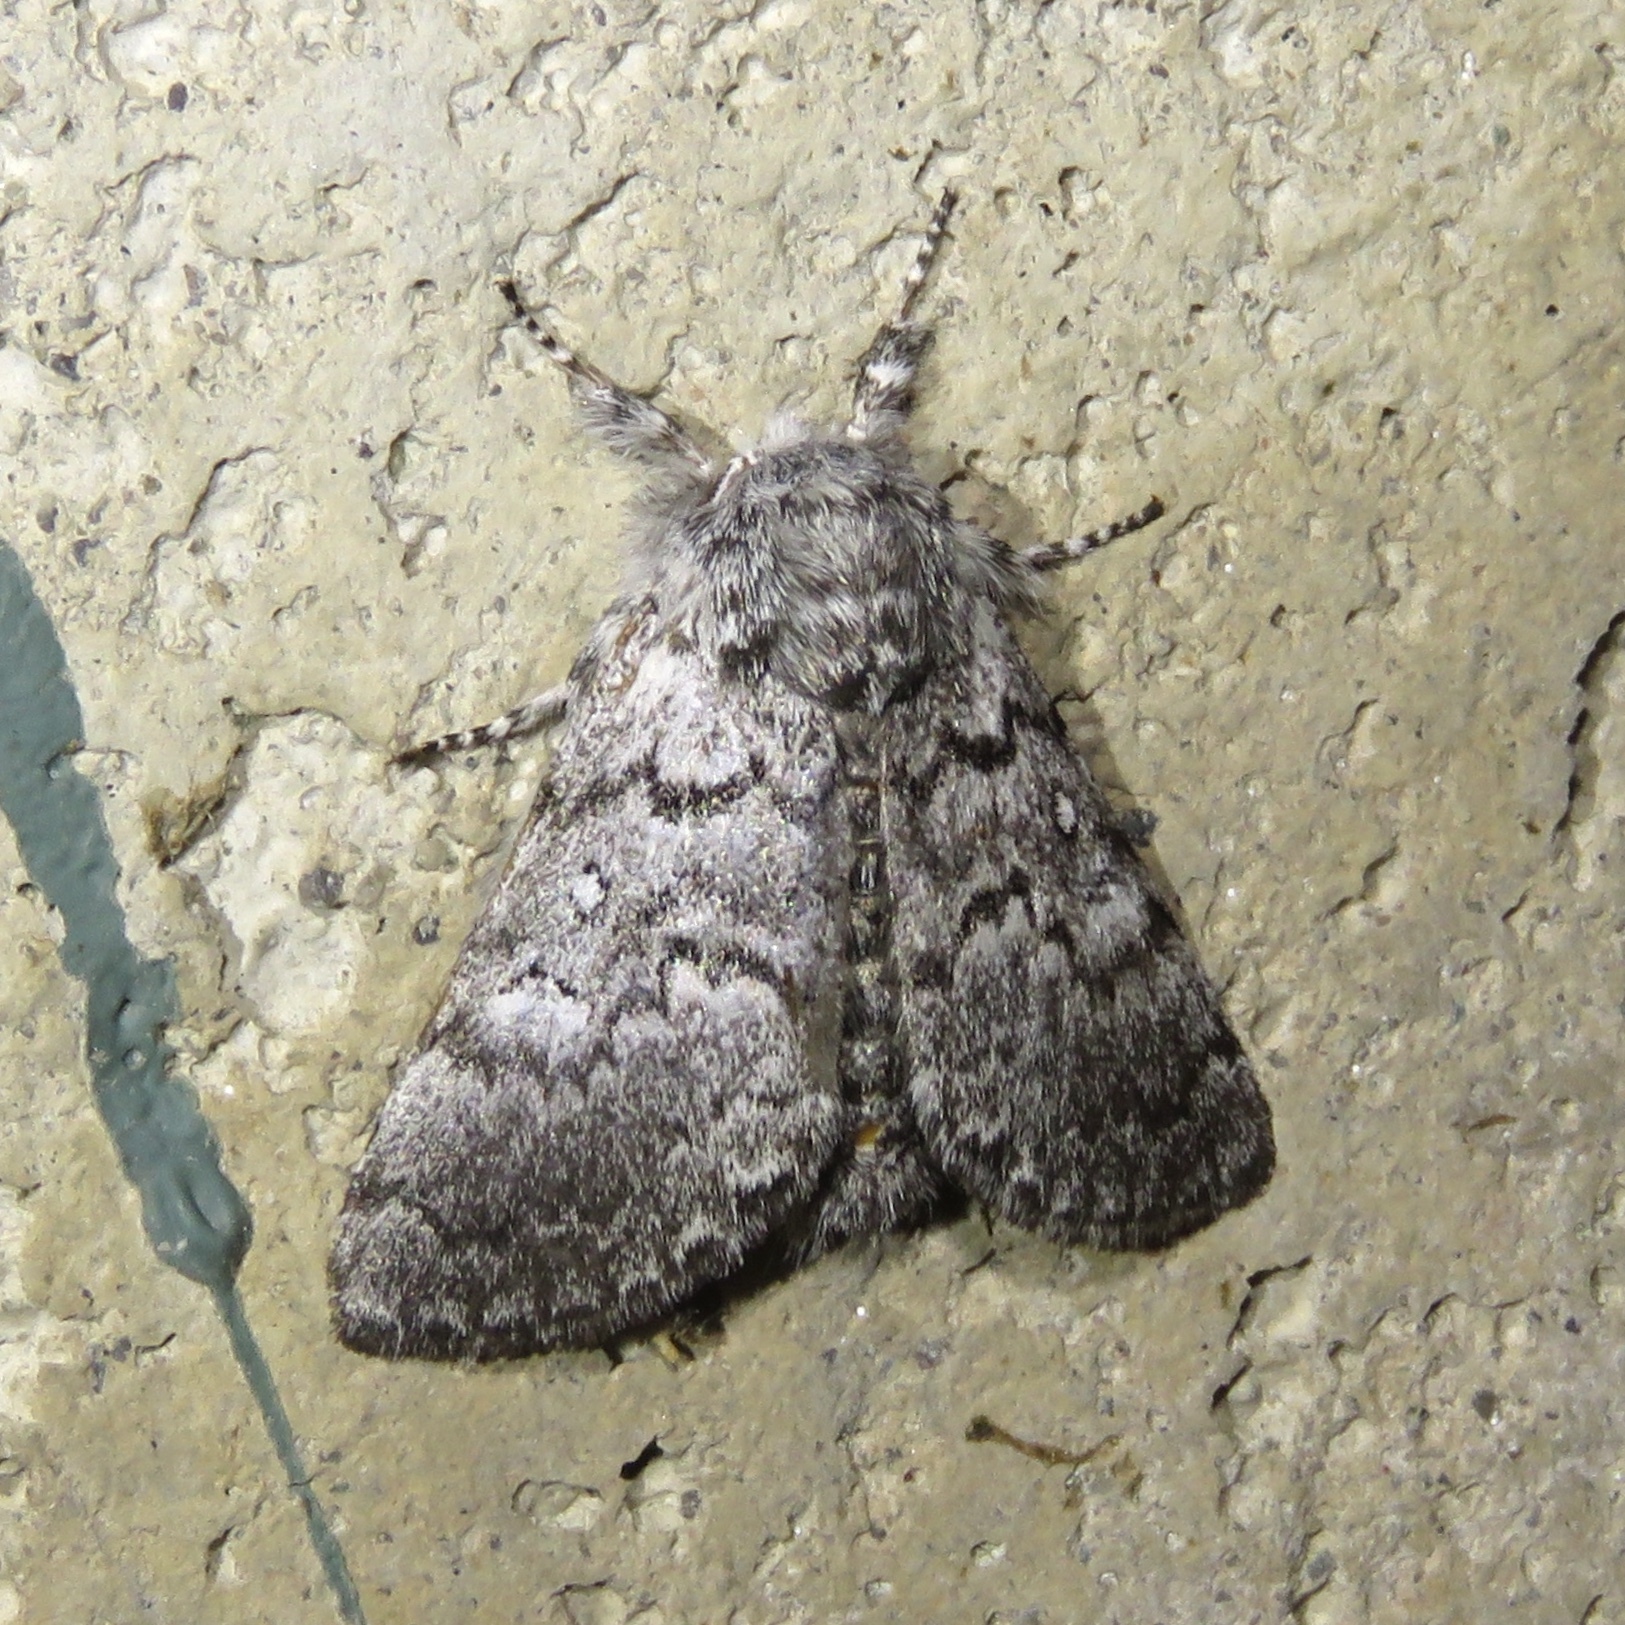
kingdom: Animalia
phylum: Arthropoda
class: Insecta
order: Lepidoptera
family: Noctuidae
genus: Colocasia
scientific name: Colocasia propinquilinea
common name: Close-banded demas
